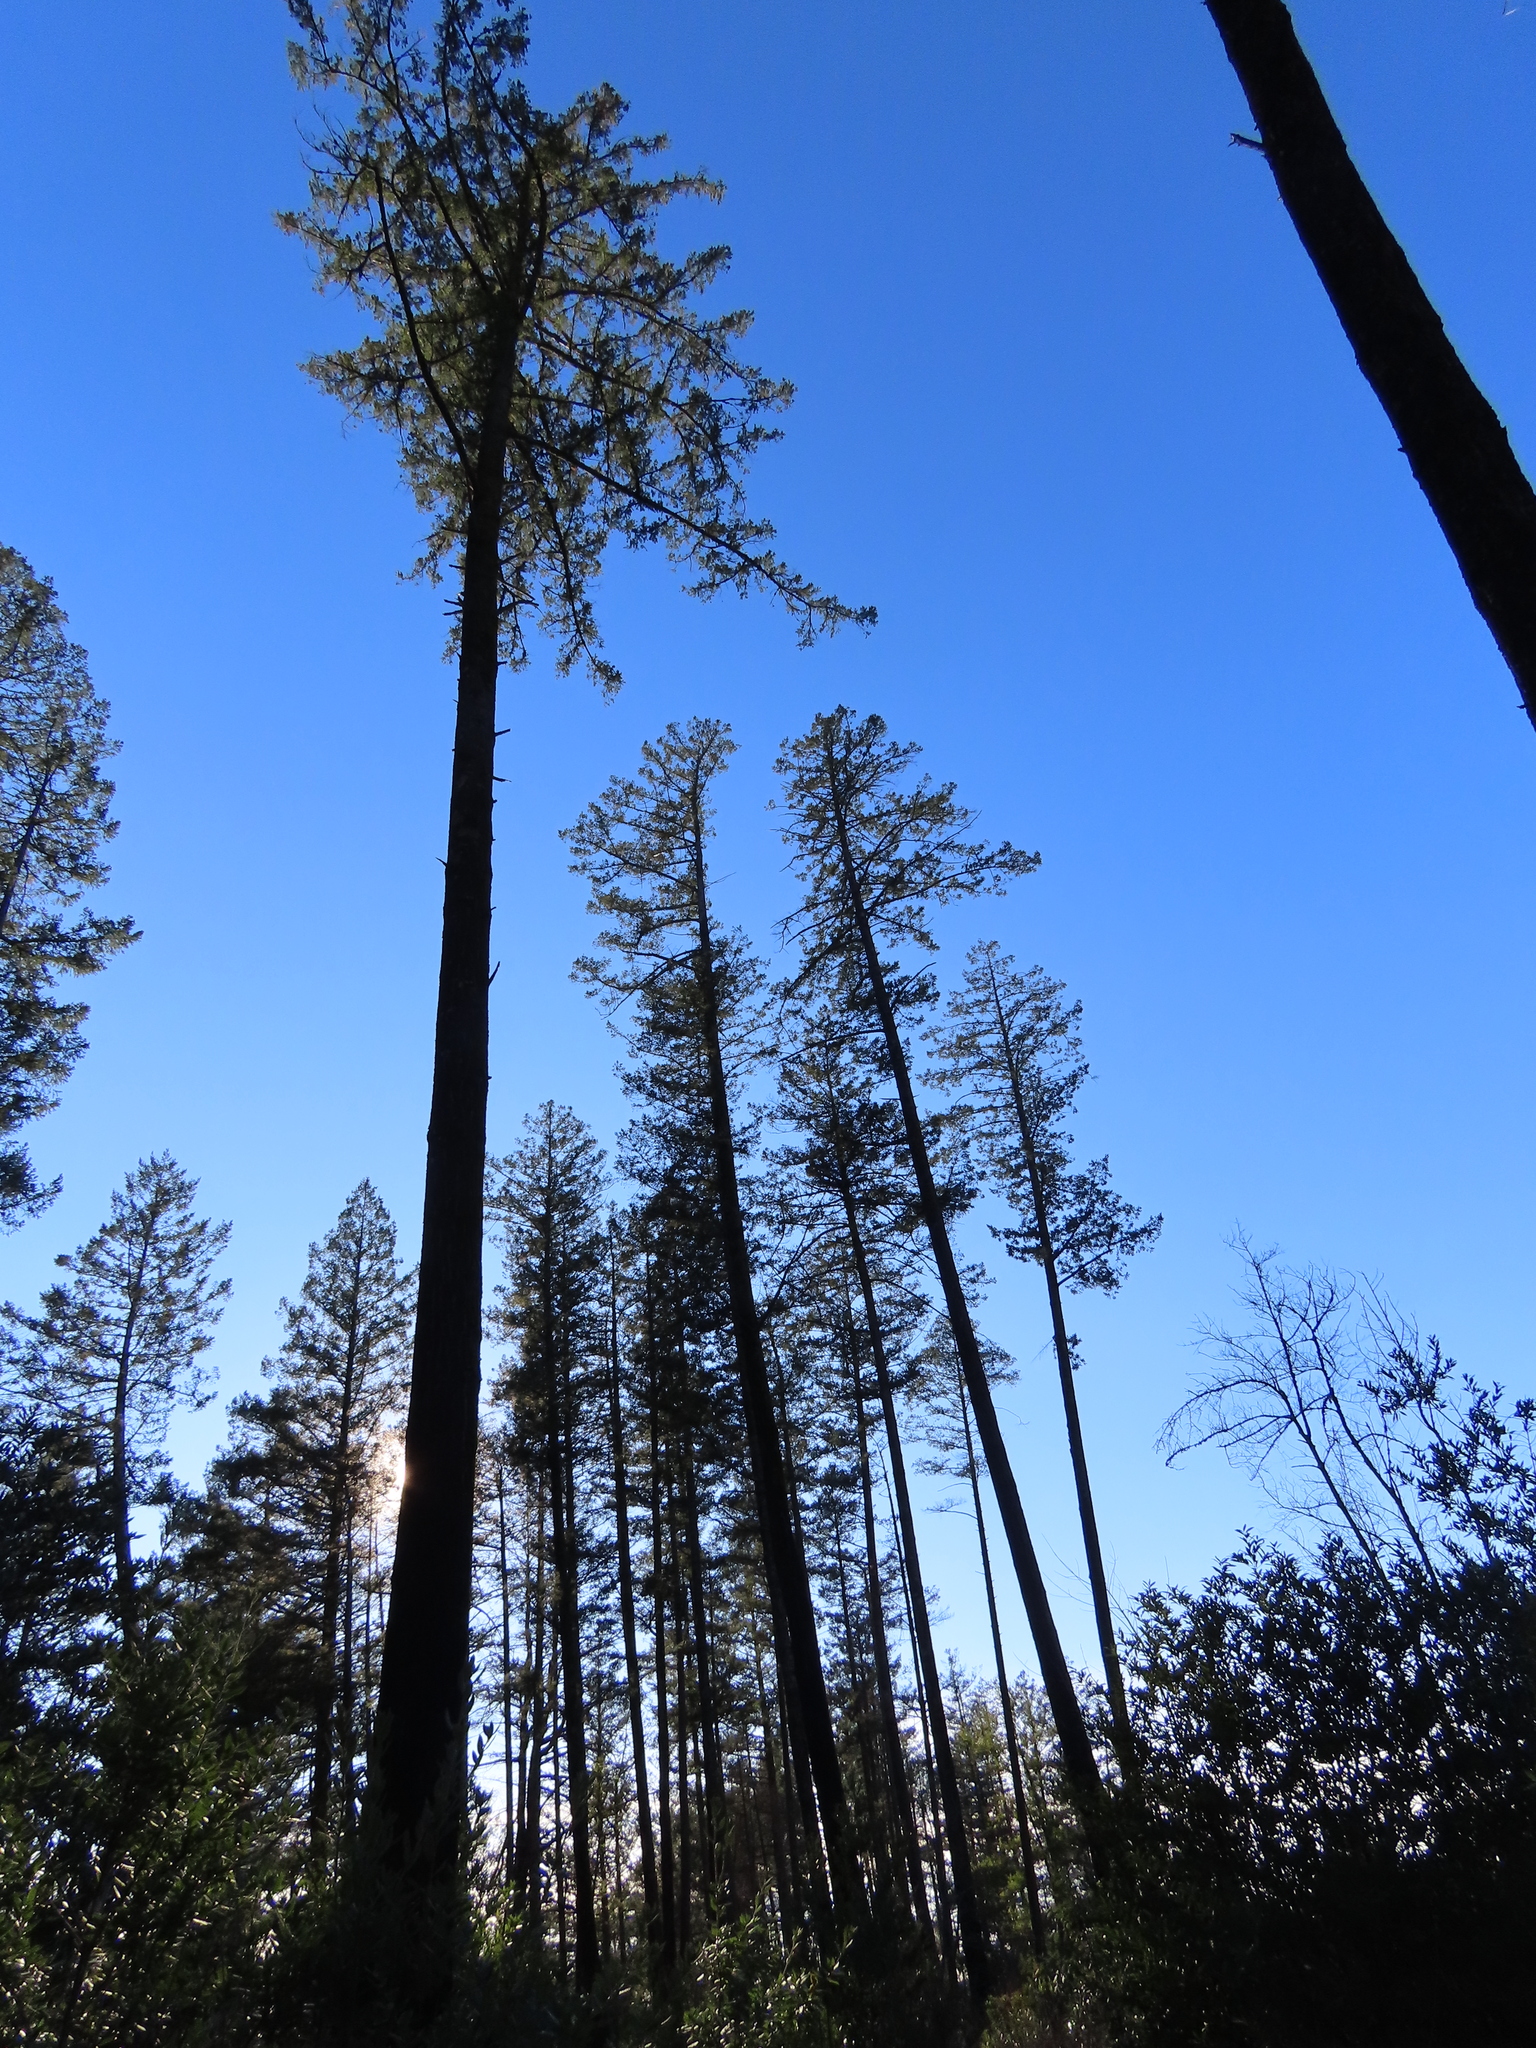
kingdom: Plantae
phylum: Tracheophyta
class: Pinopsida
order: Pinales
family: Pinaceae
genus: Pseudotsuga
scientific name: Pseudotsuga menziesii
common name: Douglas fir
